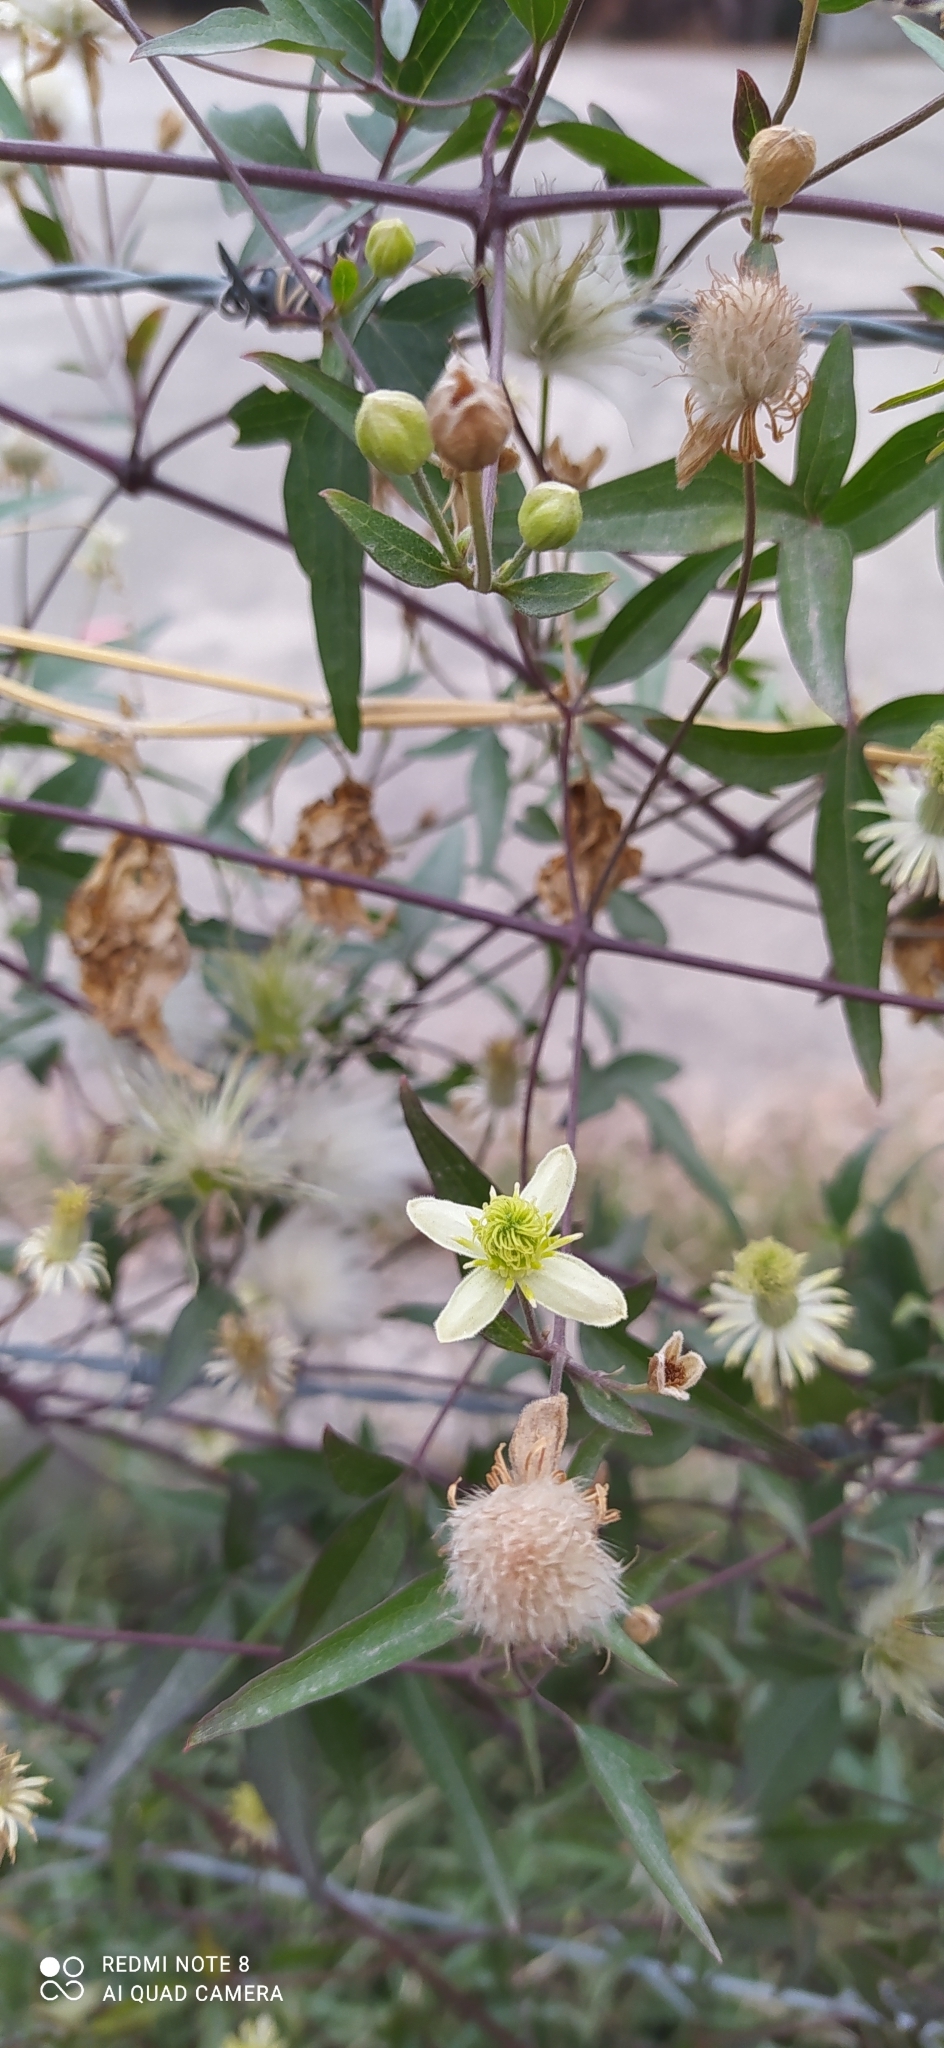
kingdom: Plantae
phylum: Tracheophyta
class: Magnoliopsida
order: Ranunculales
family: Ranunculaceae
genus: Clematis
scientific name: Clematis montevidensis
